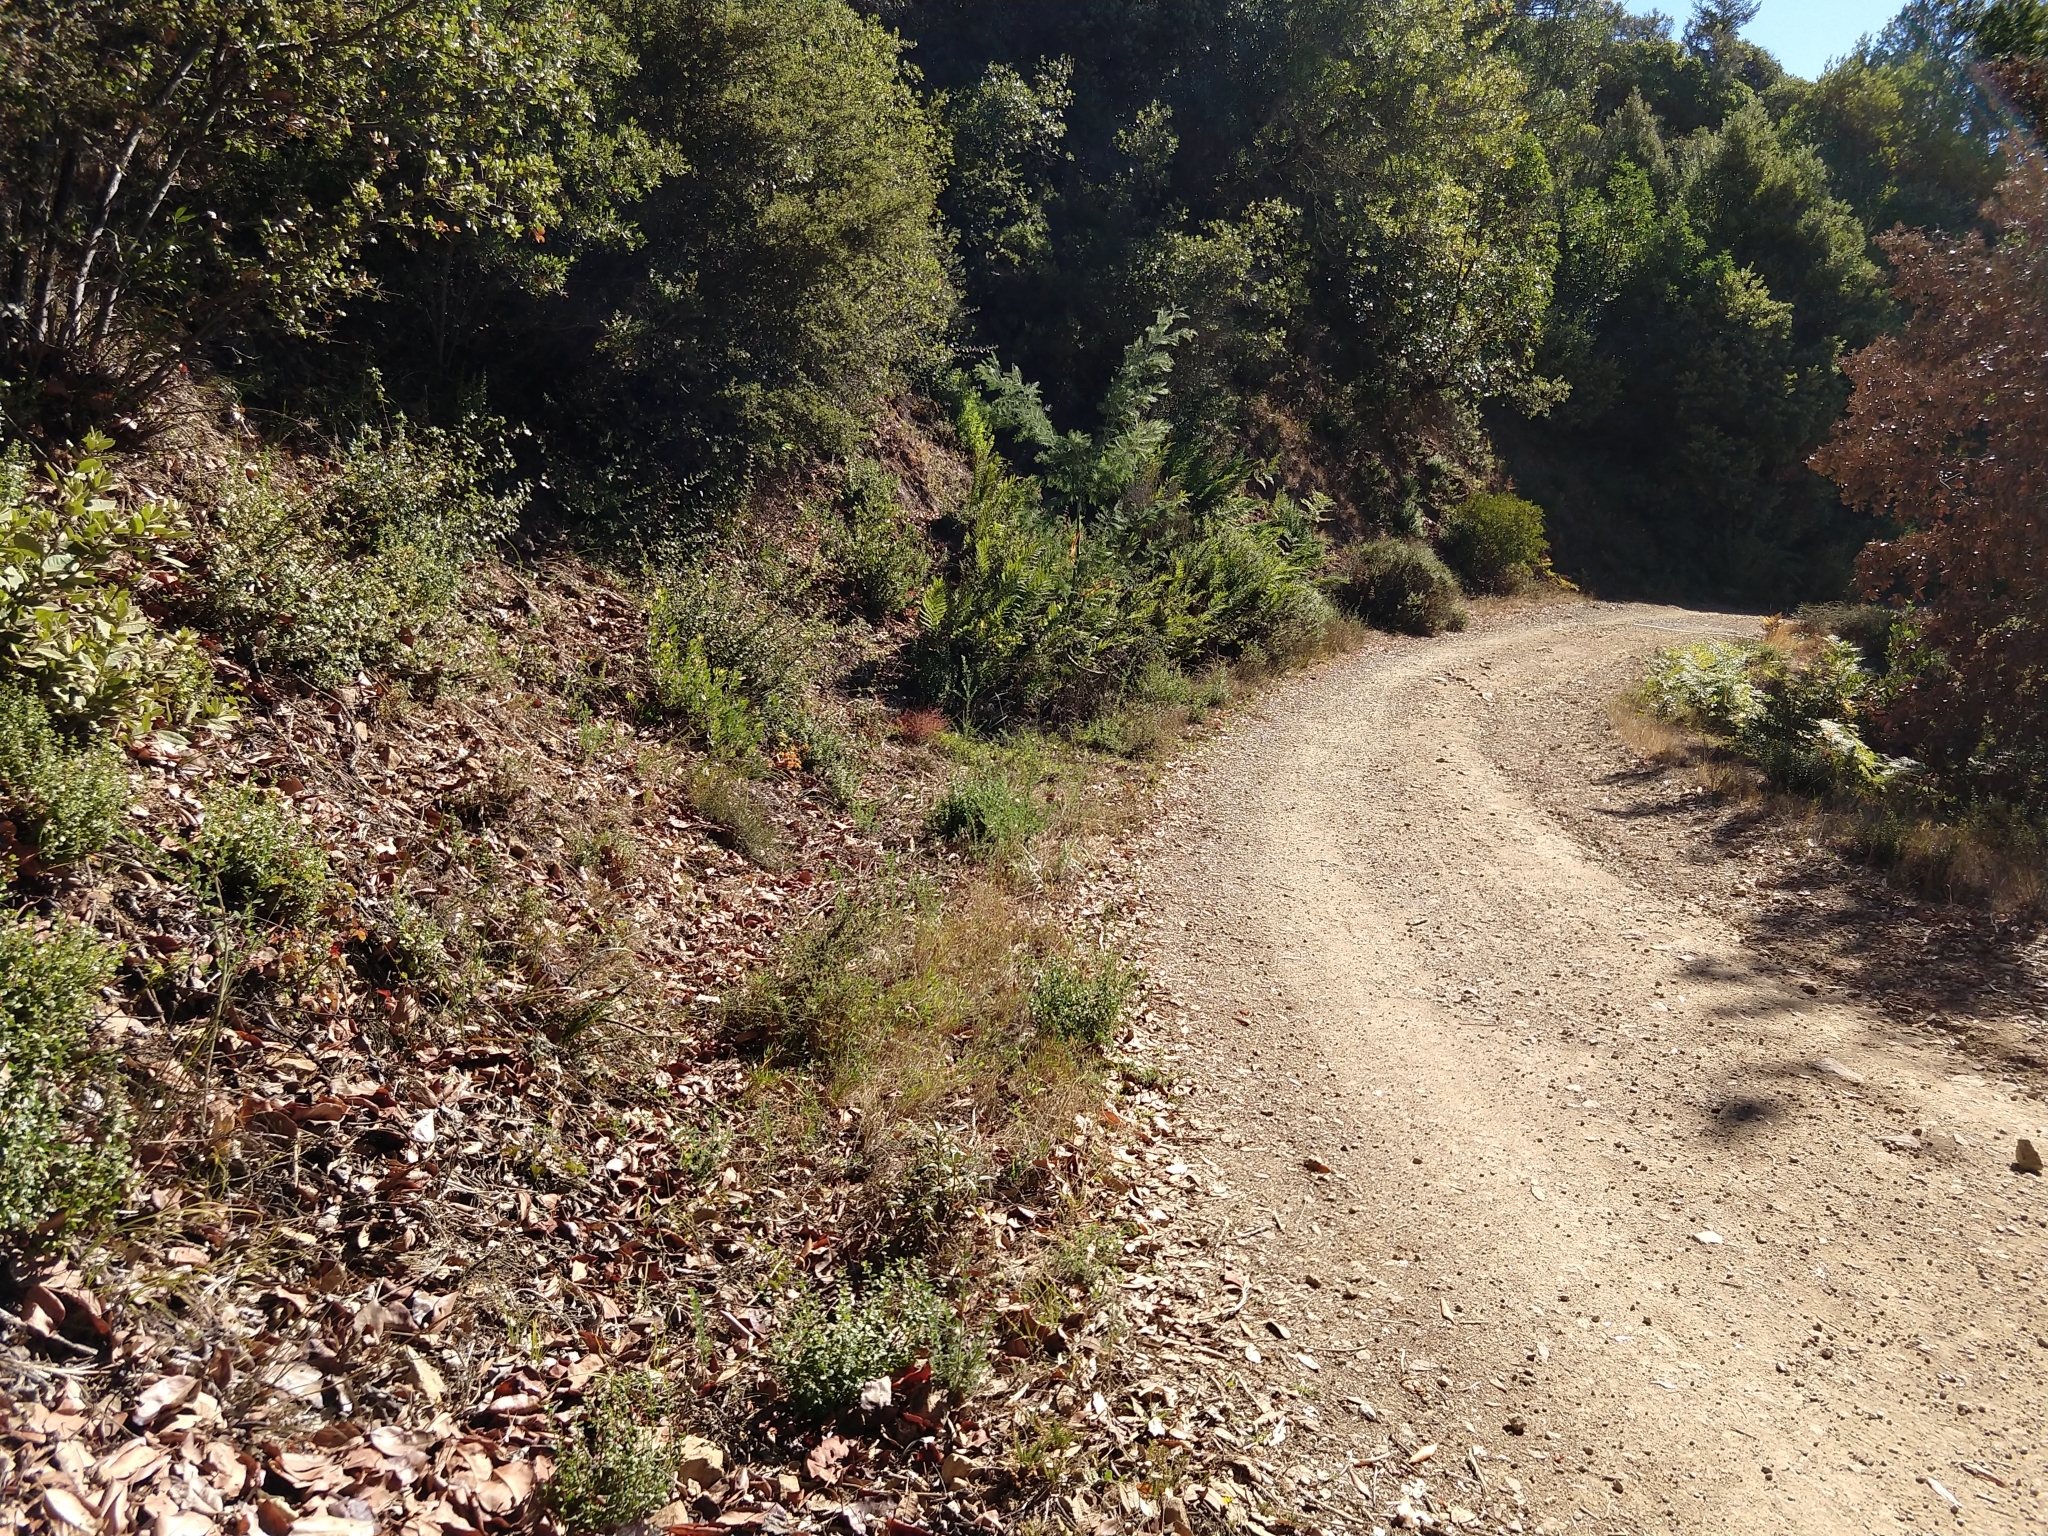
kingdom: Plantae
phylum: Tracheophyta
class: Magnoliopsida
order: Rosales
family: Rosaceae
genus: Potentilla
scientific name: Potentilla micheneri
